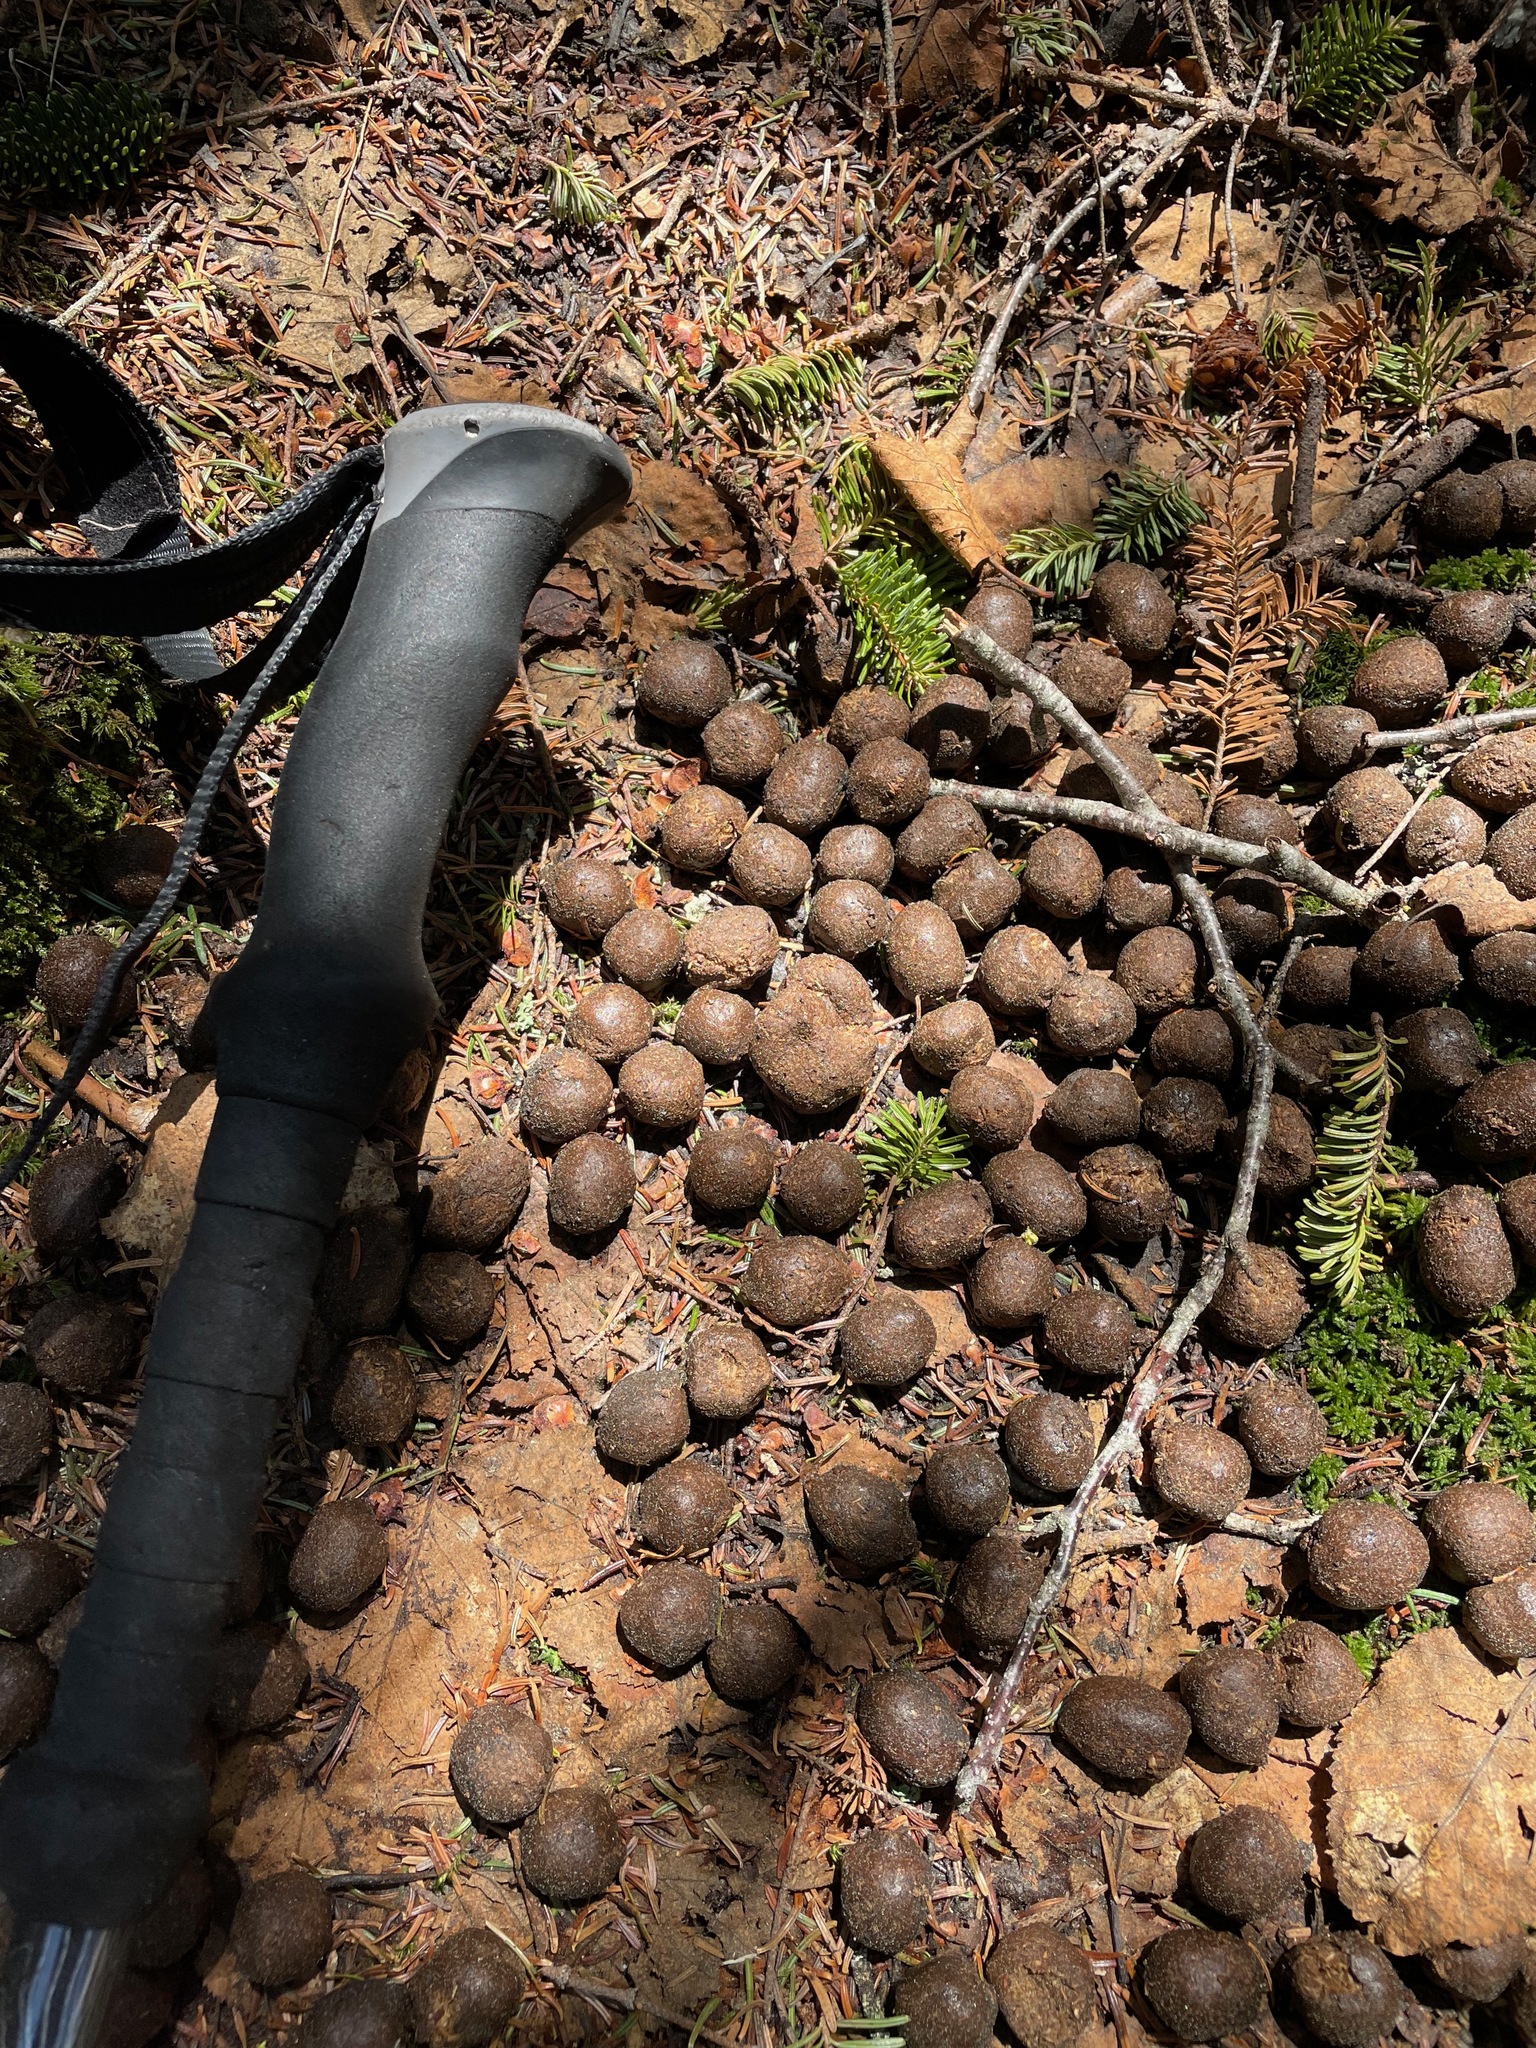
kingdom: Animalia
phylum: Chordata
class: Mammalia
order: Artiodactyla
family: Cervidae
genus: Alces
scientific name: Alces alces
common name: Moose
